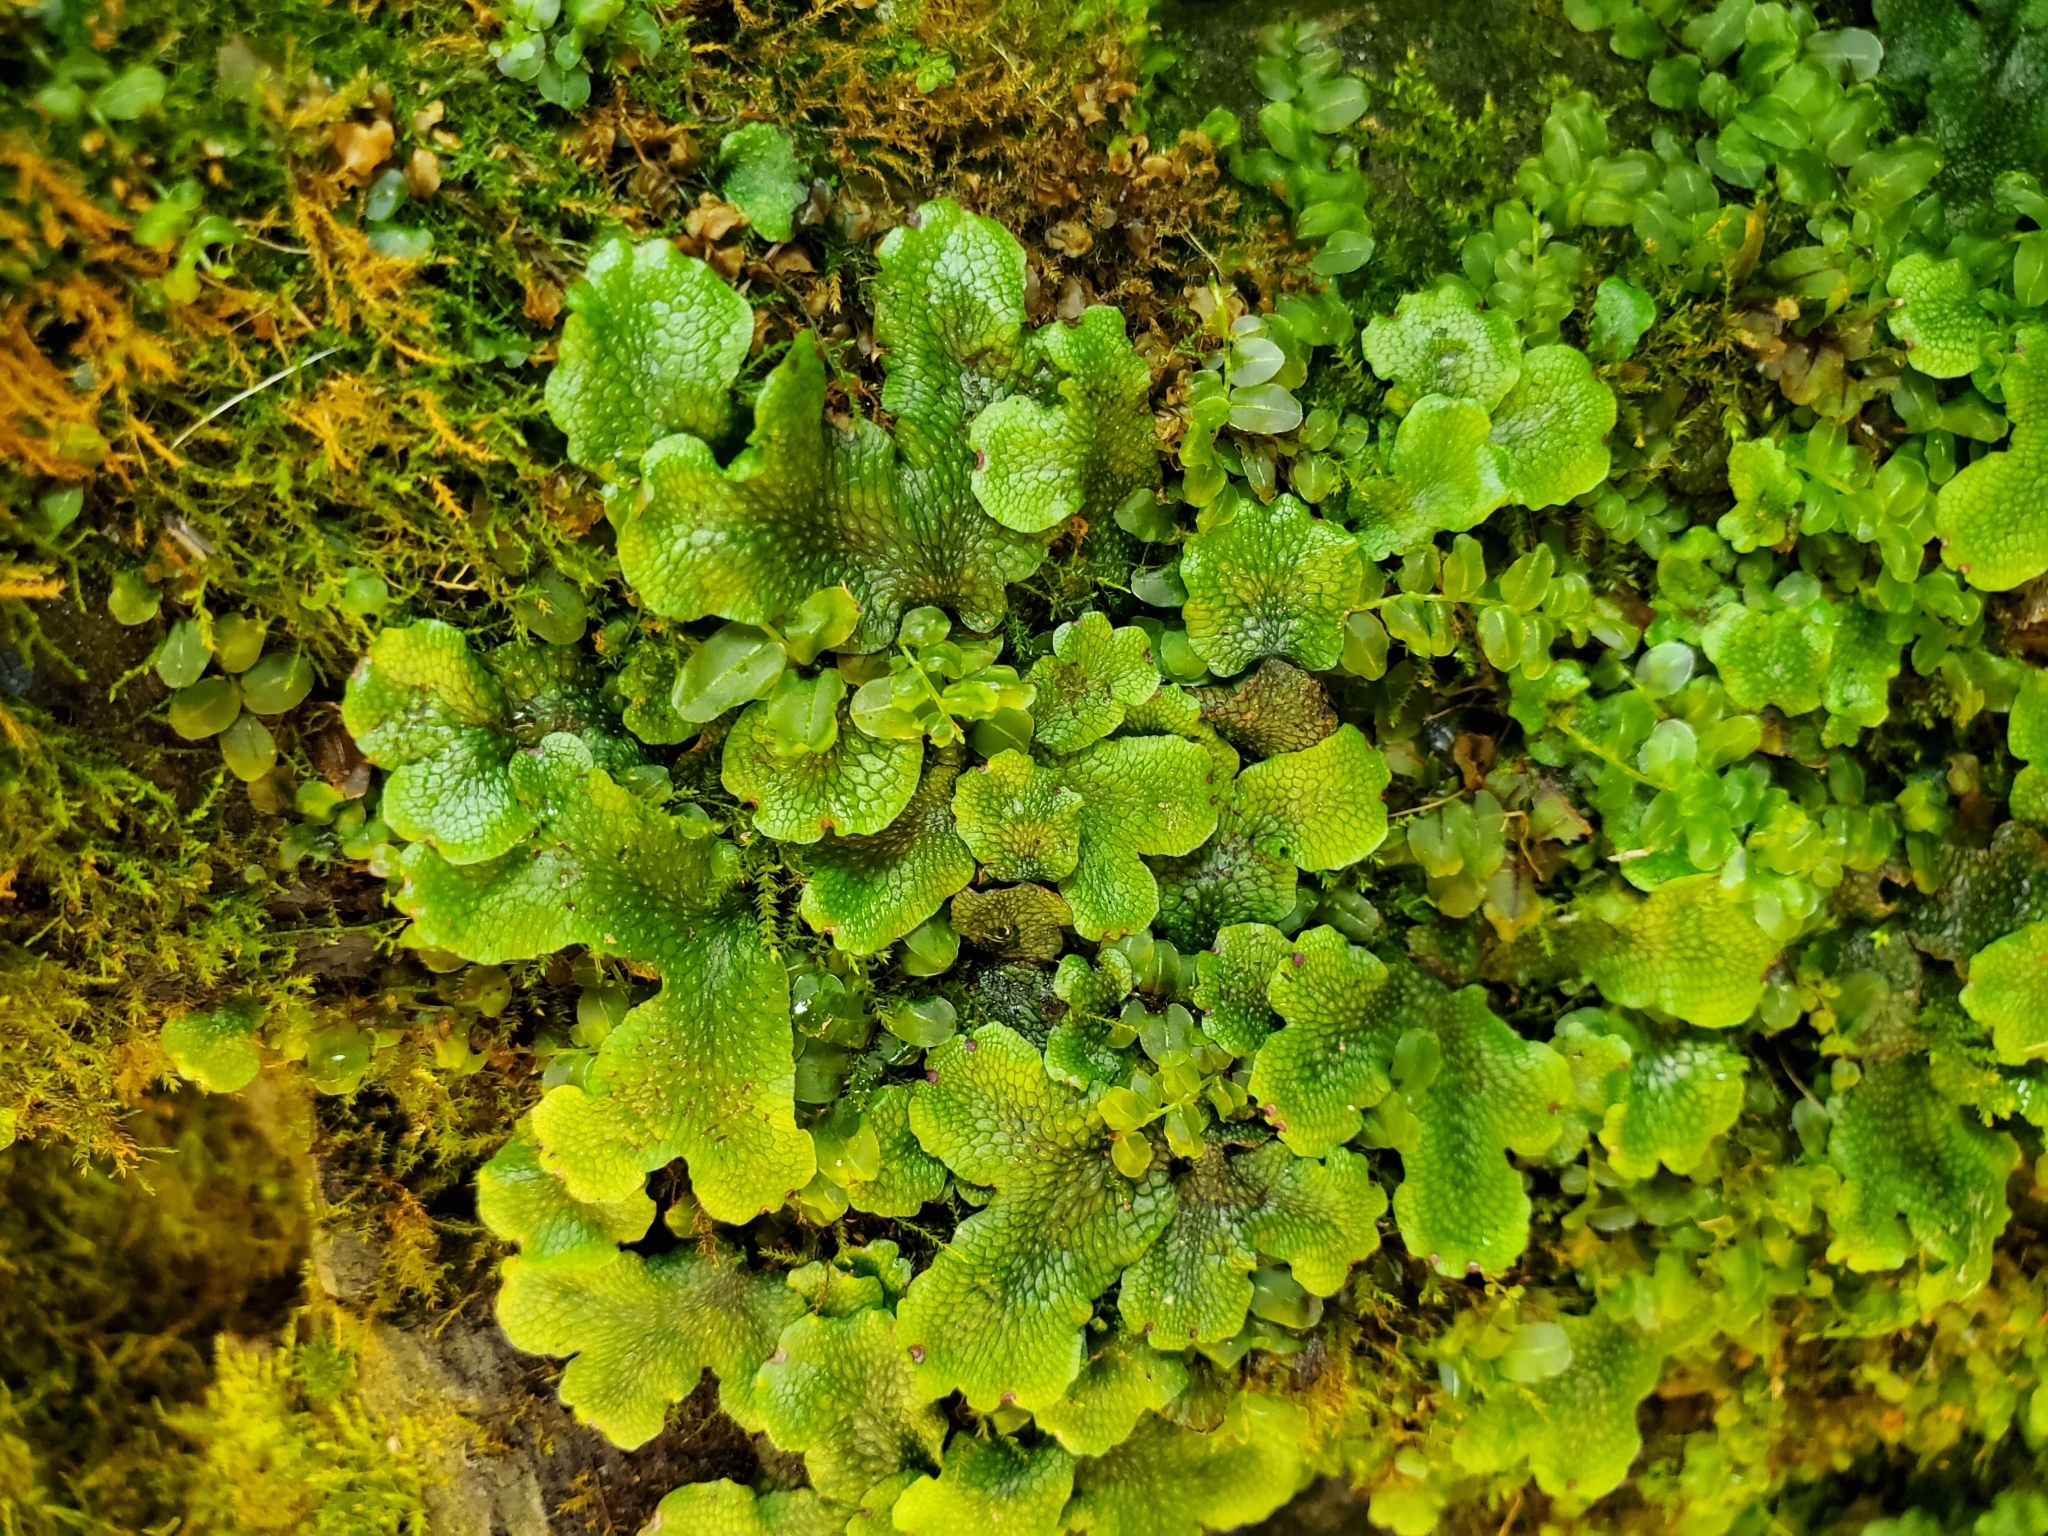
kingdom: Plantae
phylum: Marchantiophyta
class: Marchantiopsida
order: Marchantiales
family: Conocephalaceae
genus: Conocephalum
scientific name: Conocephalum salebrosum
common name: Cat-tongue liverwort
